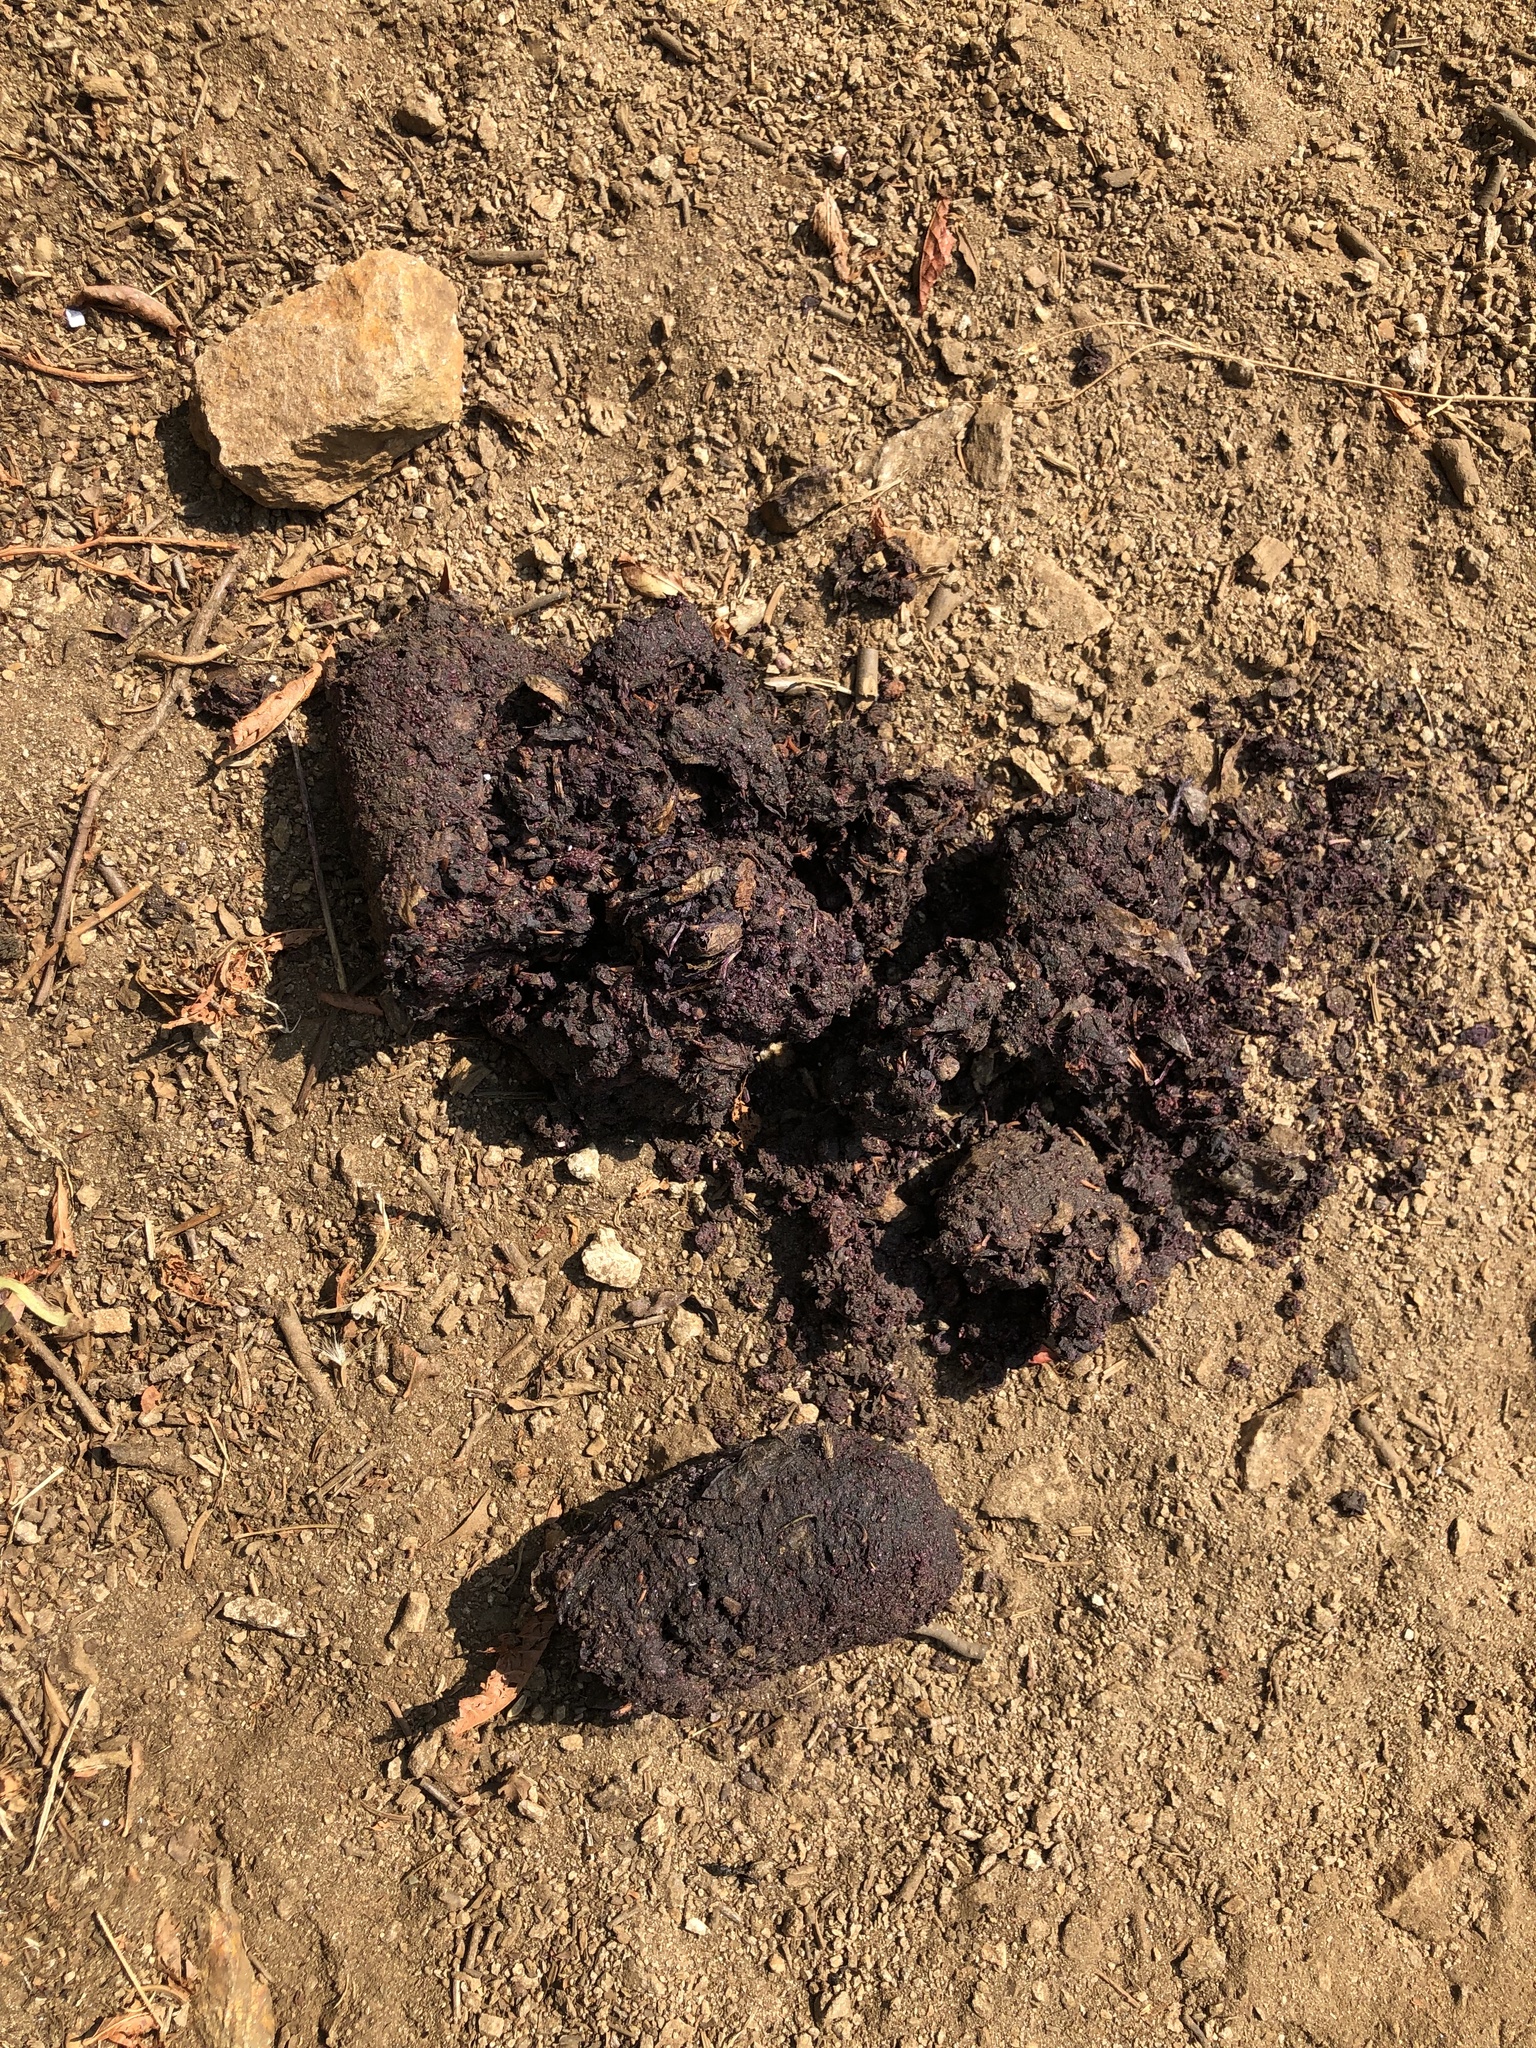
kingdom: Animalia
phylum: Chordata
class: Mammalia
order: Carnivora
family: Ursidae
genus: Ursus
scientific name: Ursus americanus
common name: American black bear
